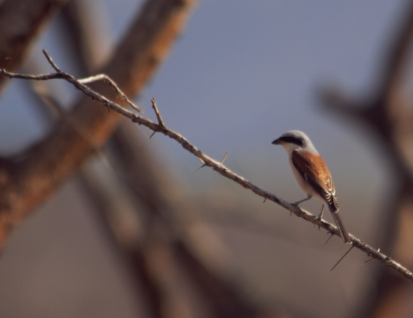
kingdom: Animalia
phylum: Chordata
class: Aves
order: Passeriformes
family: Laniidae
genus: Lanius
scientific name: Lanius collurio
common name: Red-backed shrike
